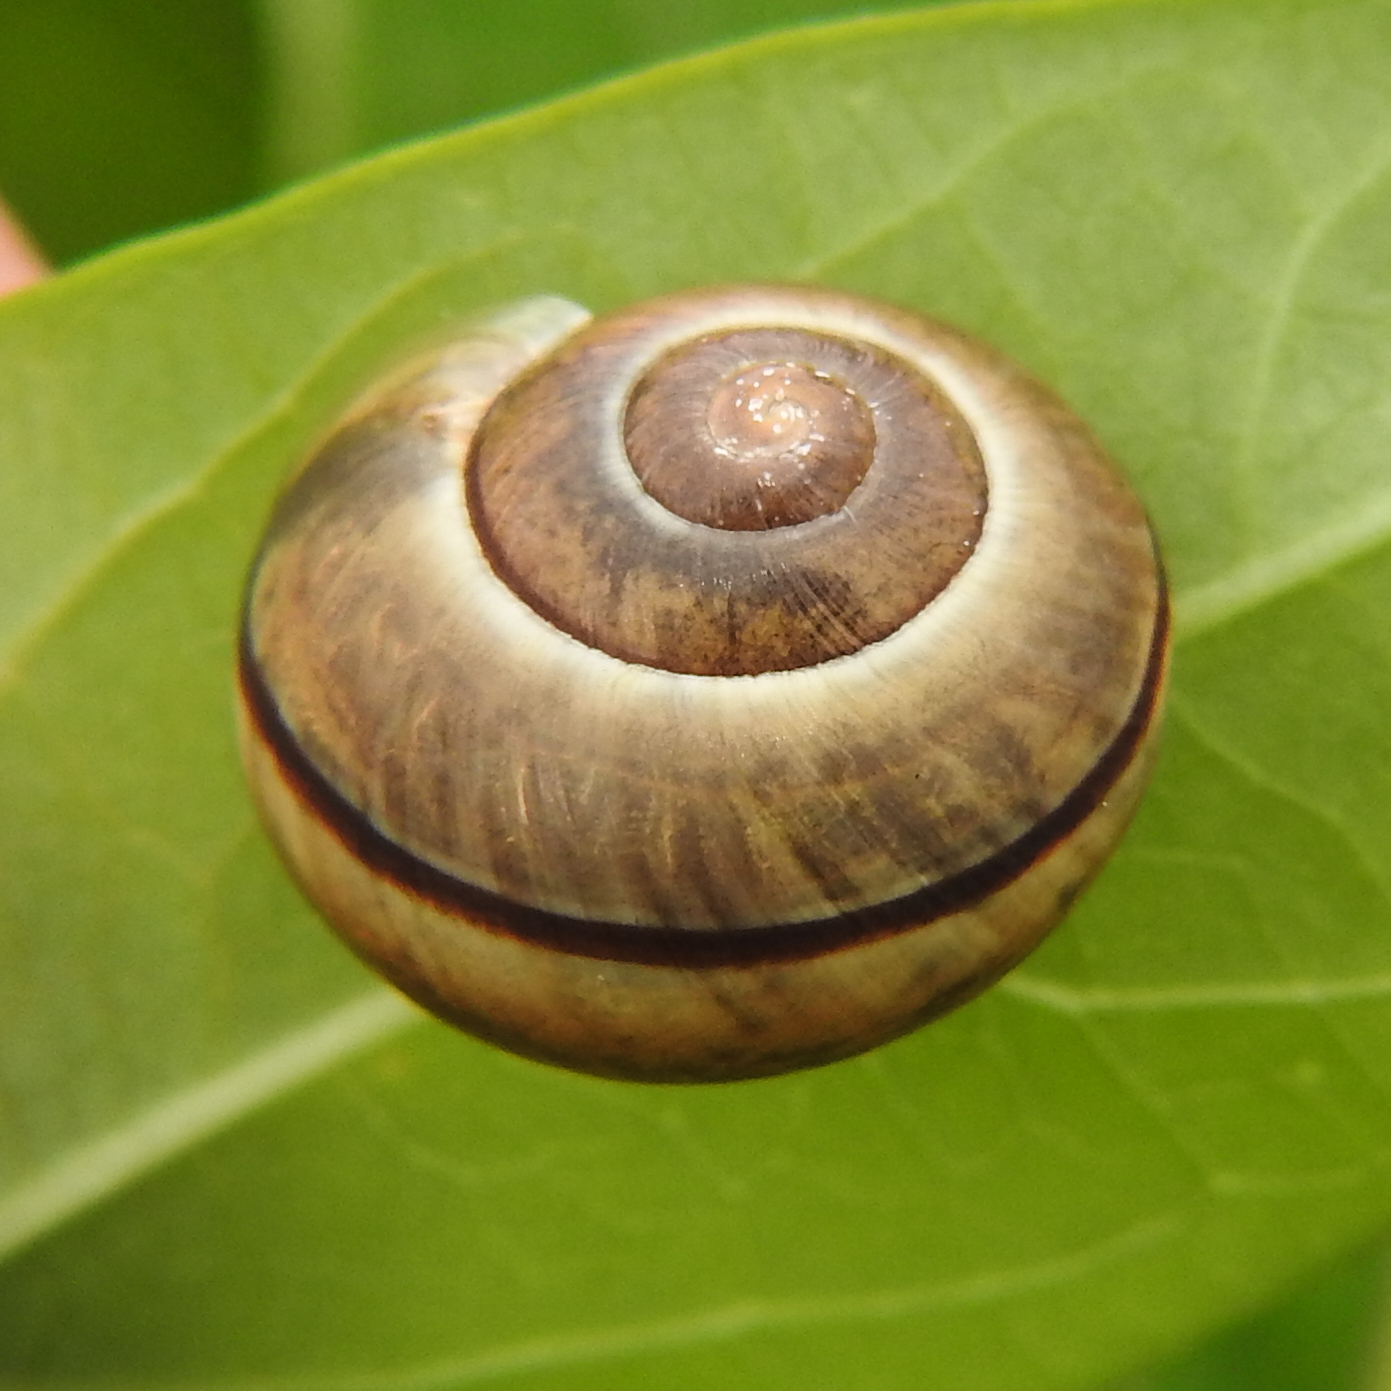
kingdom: Animalia
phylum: Mollusca
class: Gastropoda
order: Stylommatophora
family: Helicidae
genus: Cepaea
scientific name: Cepaea nemoralis
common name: Grovesnail
